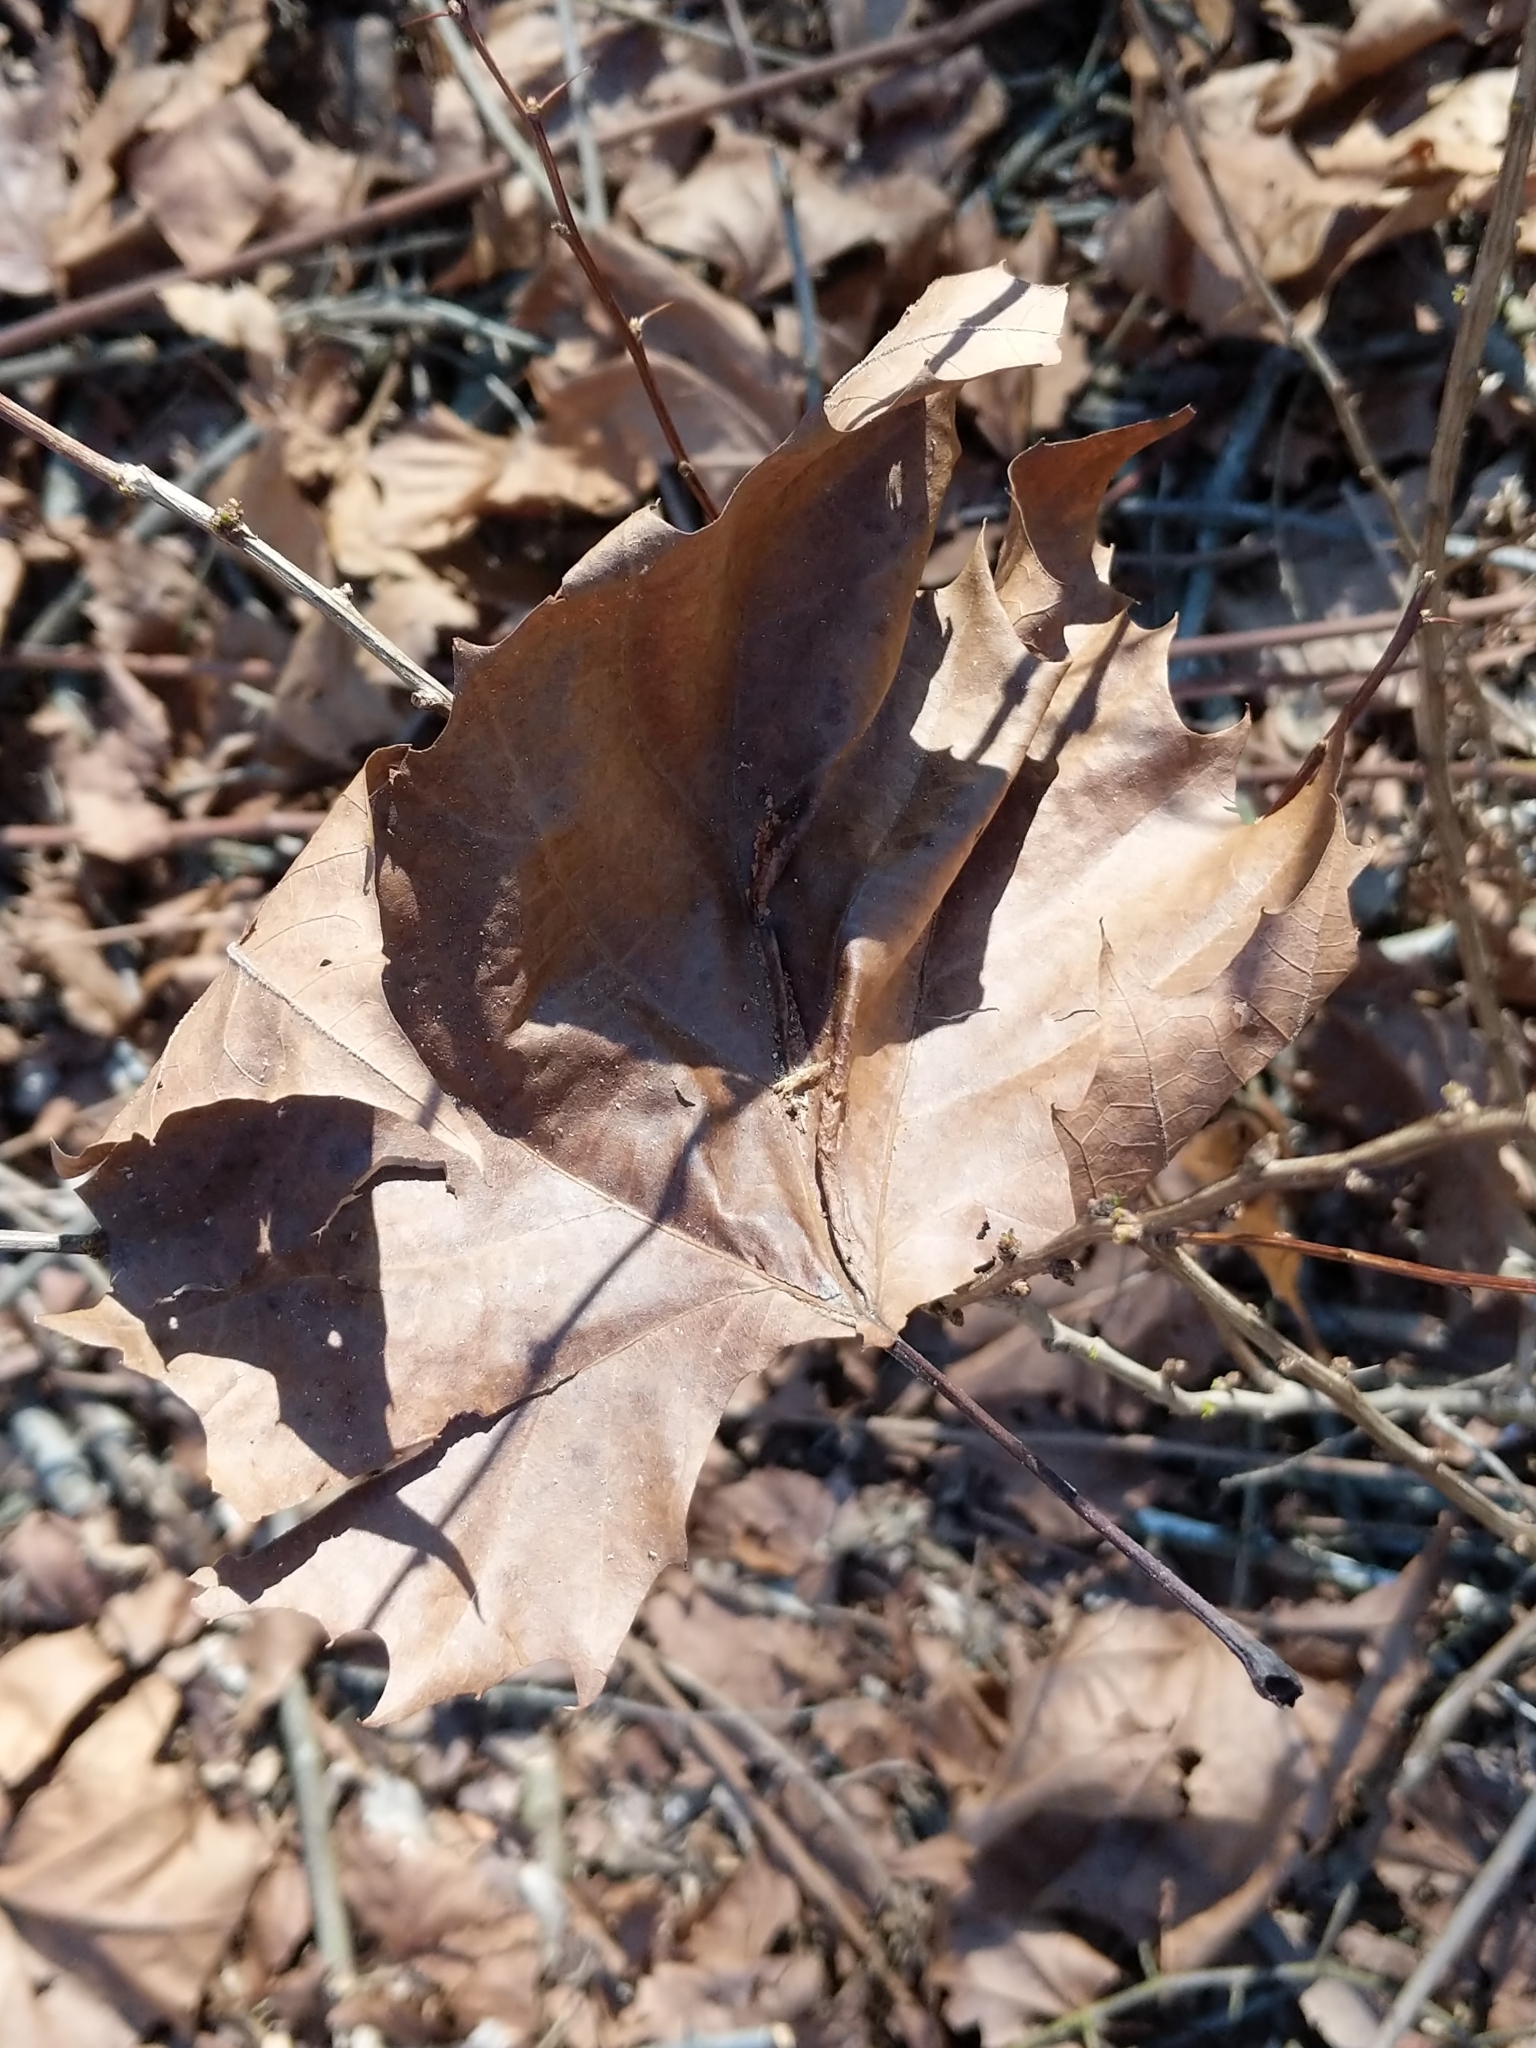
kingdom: Plantae
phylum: Tracheophyta
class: Magnoliopsida
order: Proteales
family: Platanaceae
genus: Platanus
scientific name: Platanus occidentalis
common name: American sycamore
